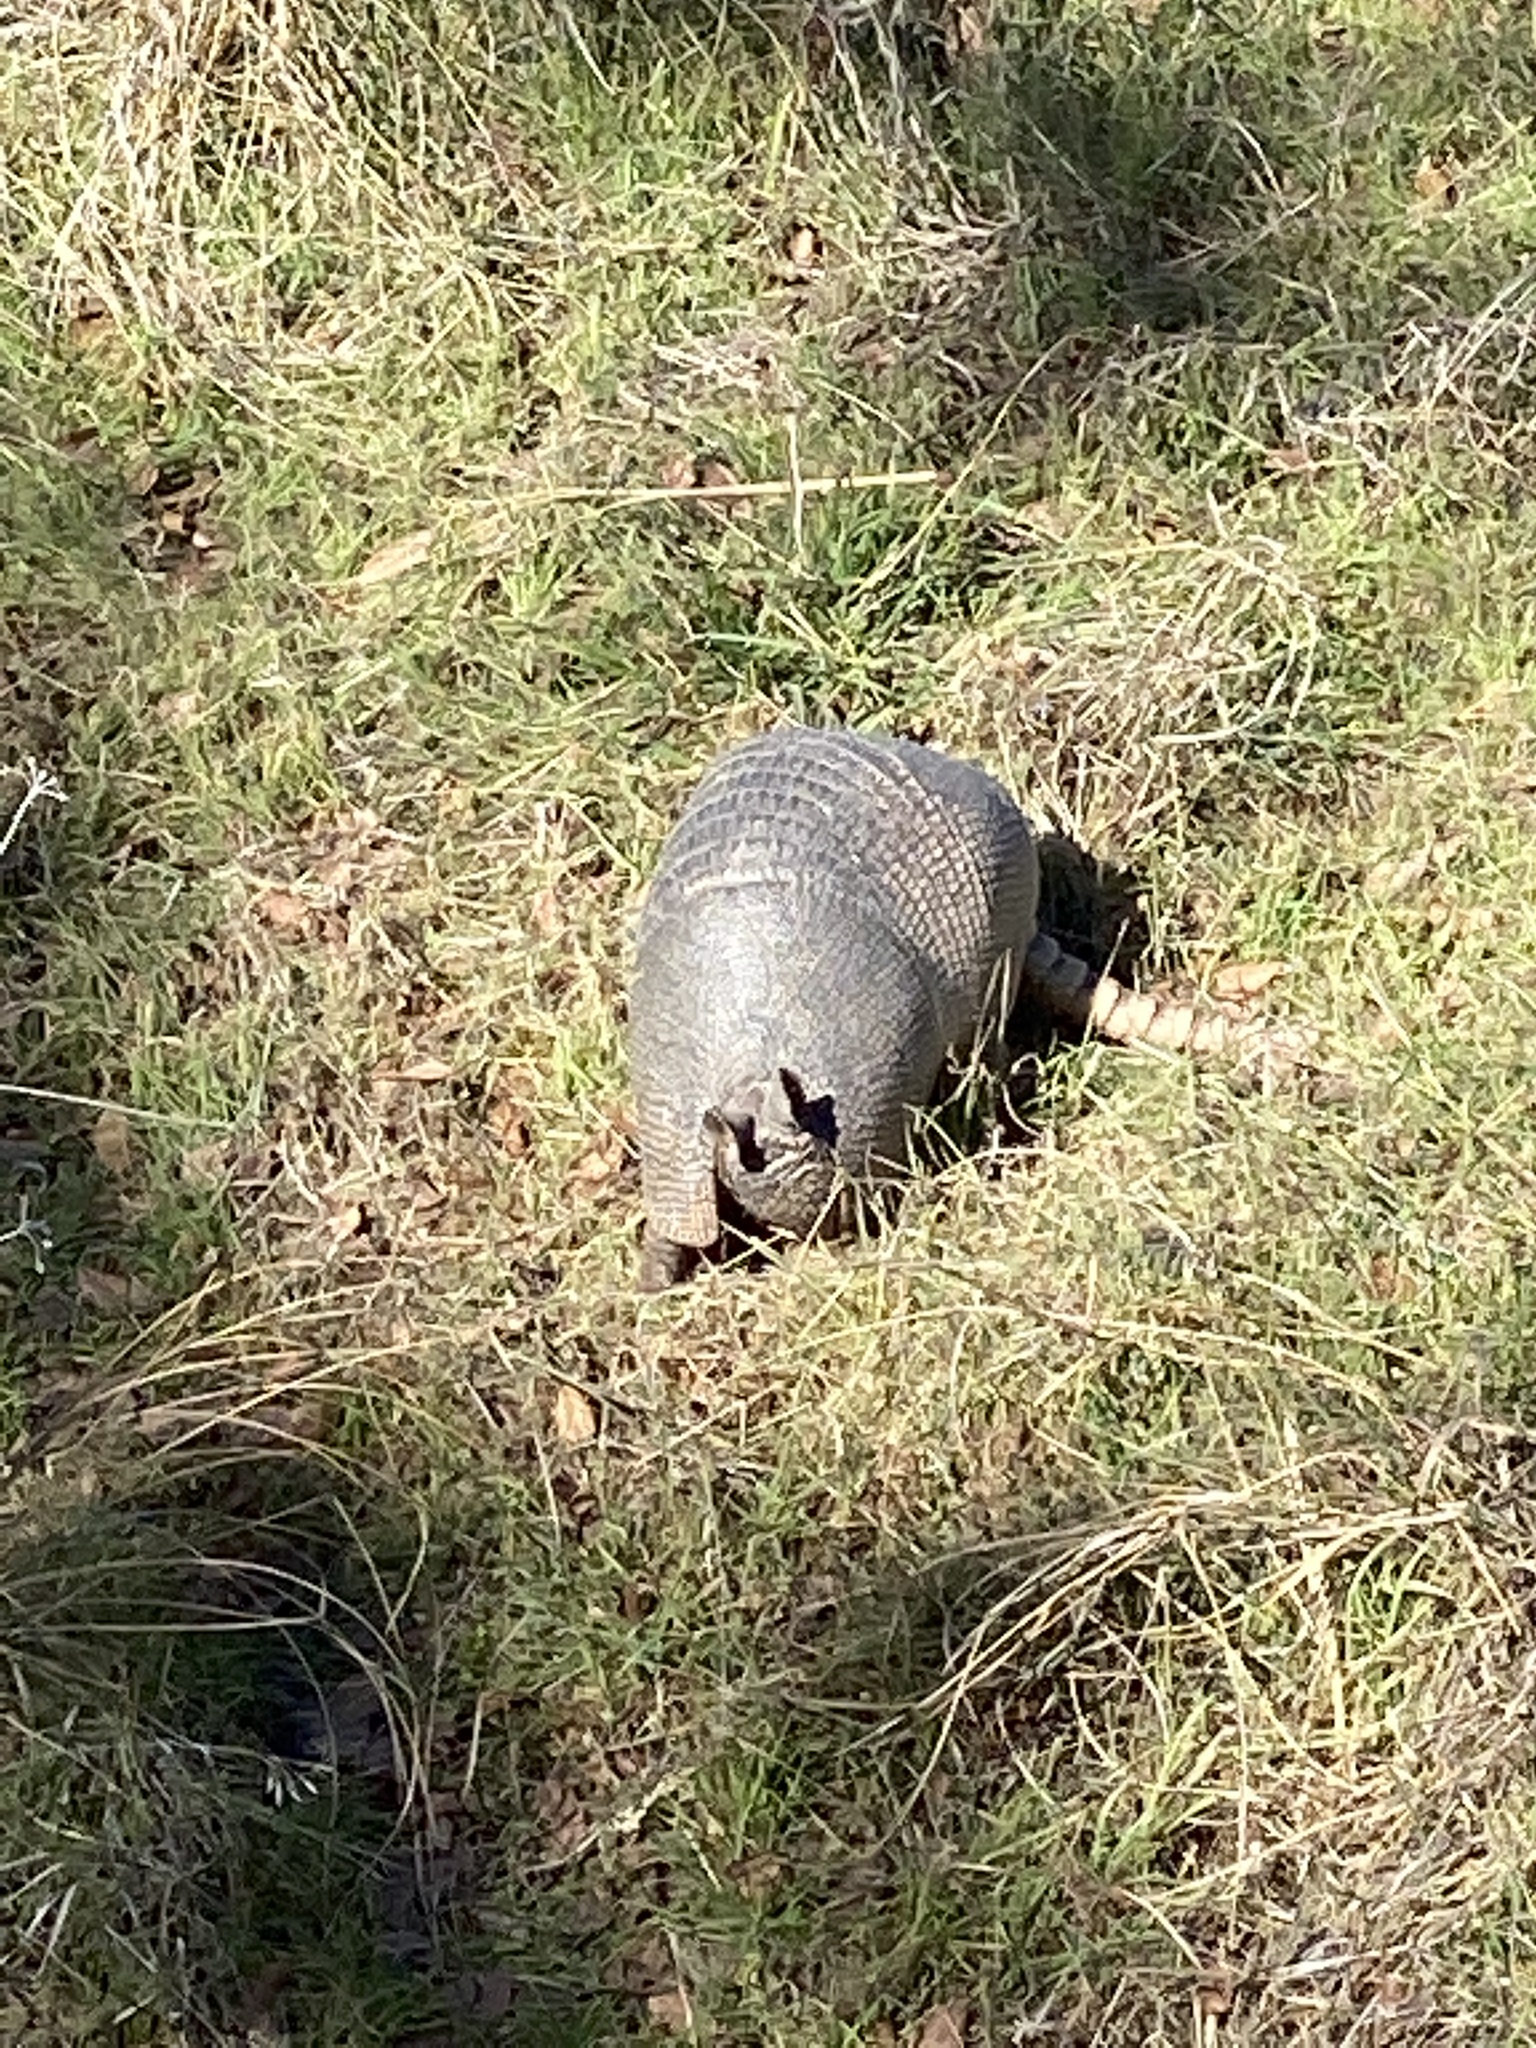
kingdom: Animalia
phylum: Chordata
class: Mammalia
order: Cingulata
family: Dasypodidae
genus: Dasypus
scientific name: Dasypus novemcinctus
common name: Nine-banded armadillo
